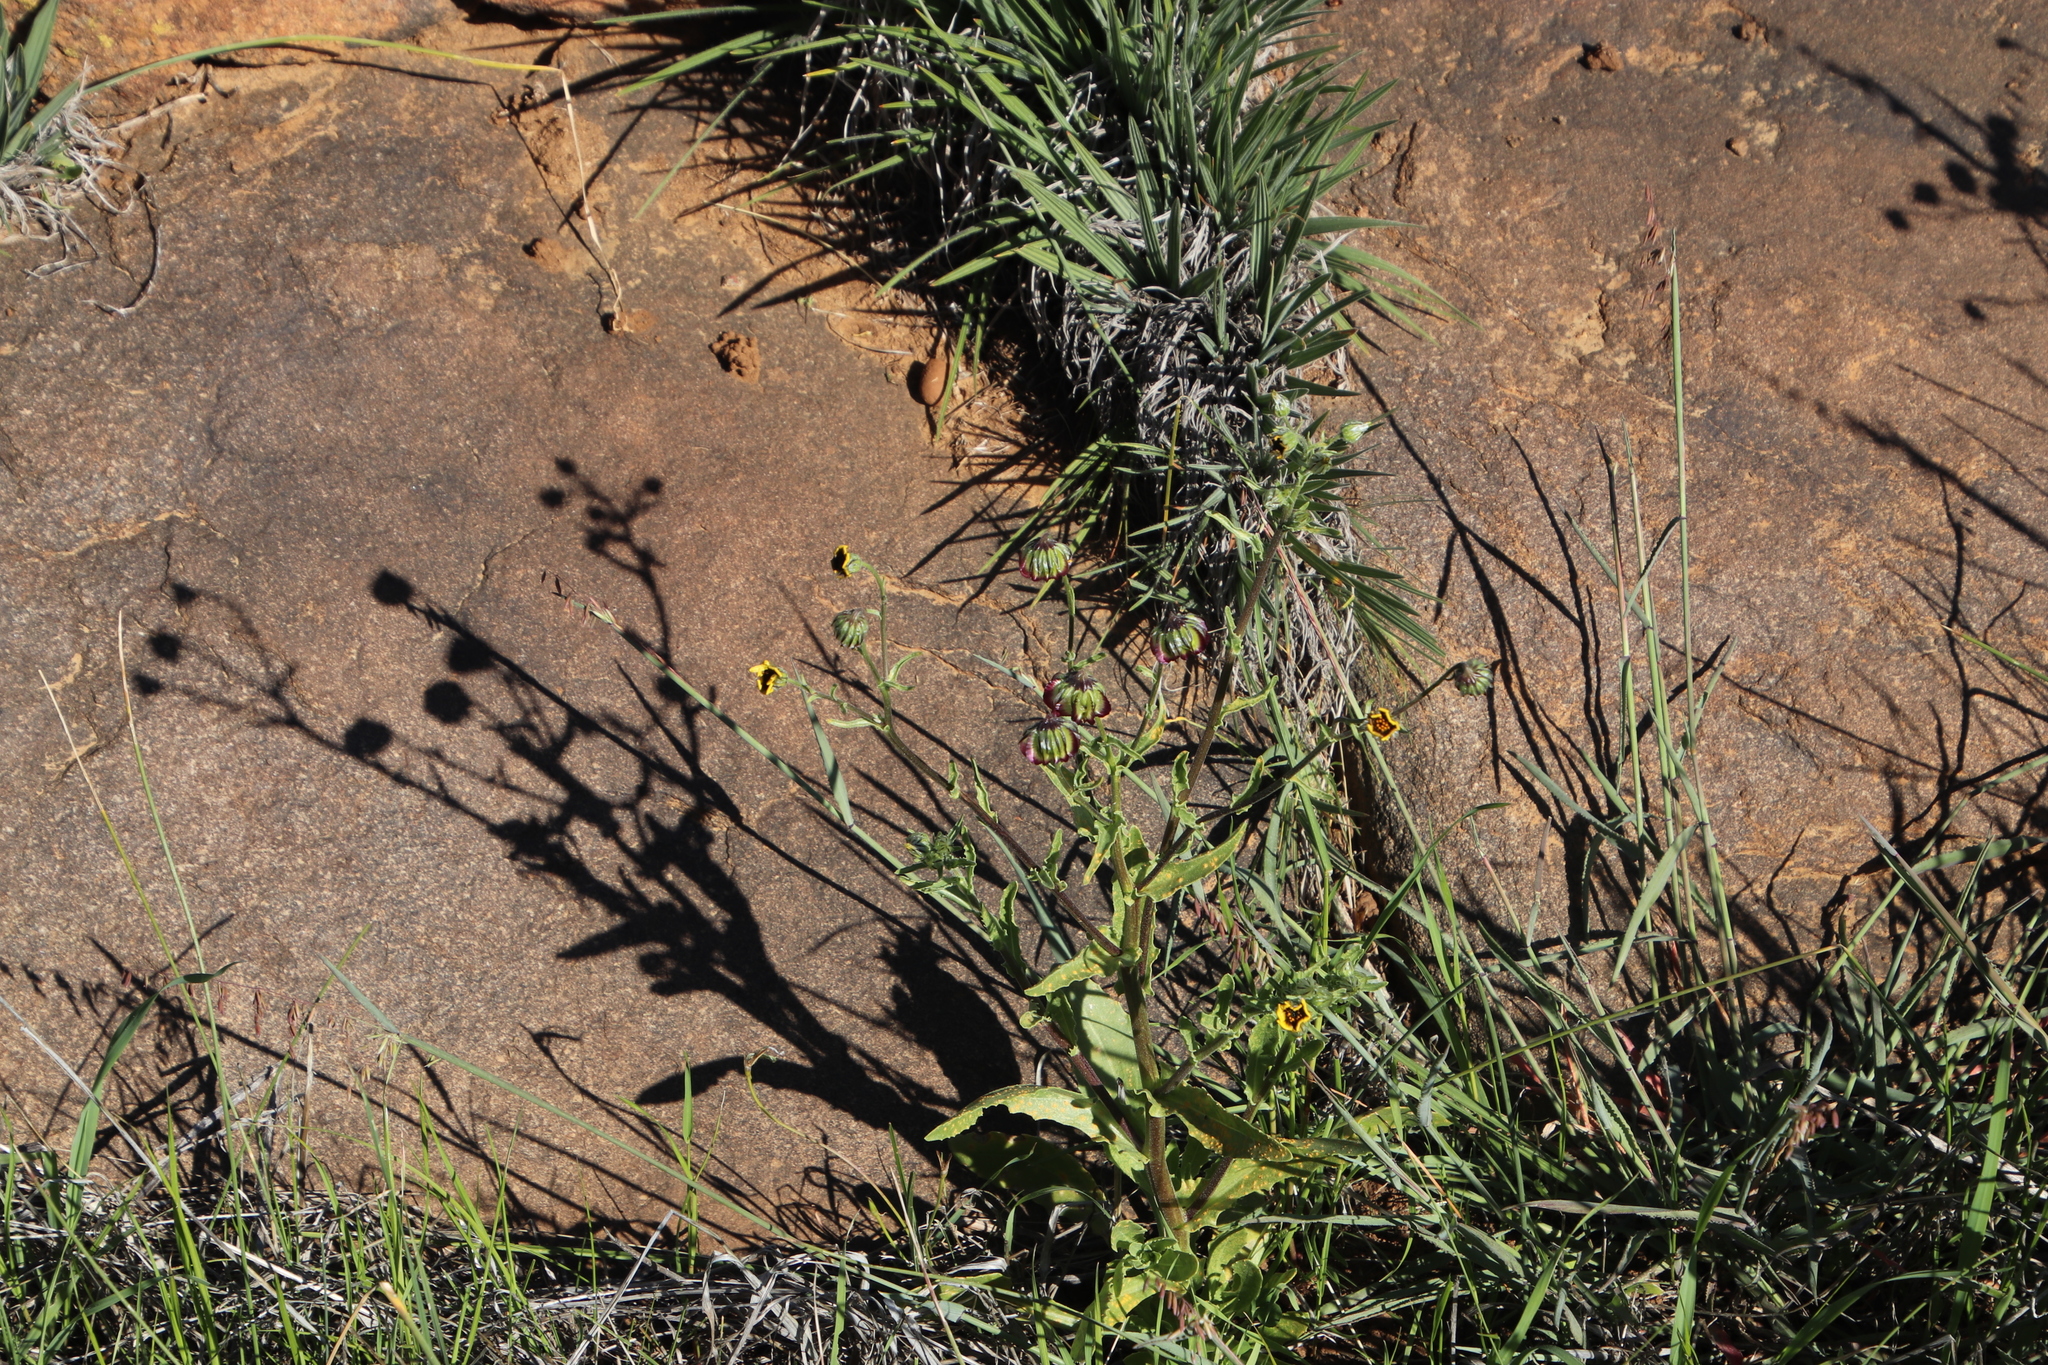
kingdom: Plantae
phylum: Tracheophyta
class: Magnoliopsida
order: Asterales
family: Asteraceae
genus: Osteospermum
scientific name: Osteospermum monstrosum
